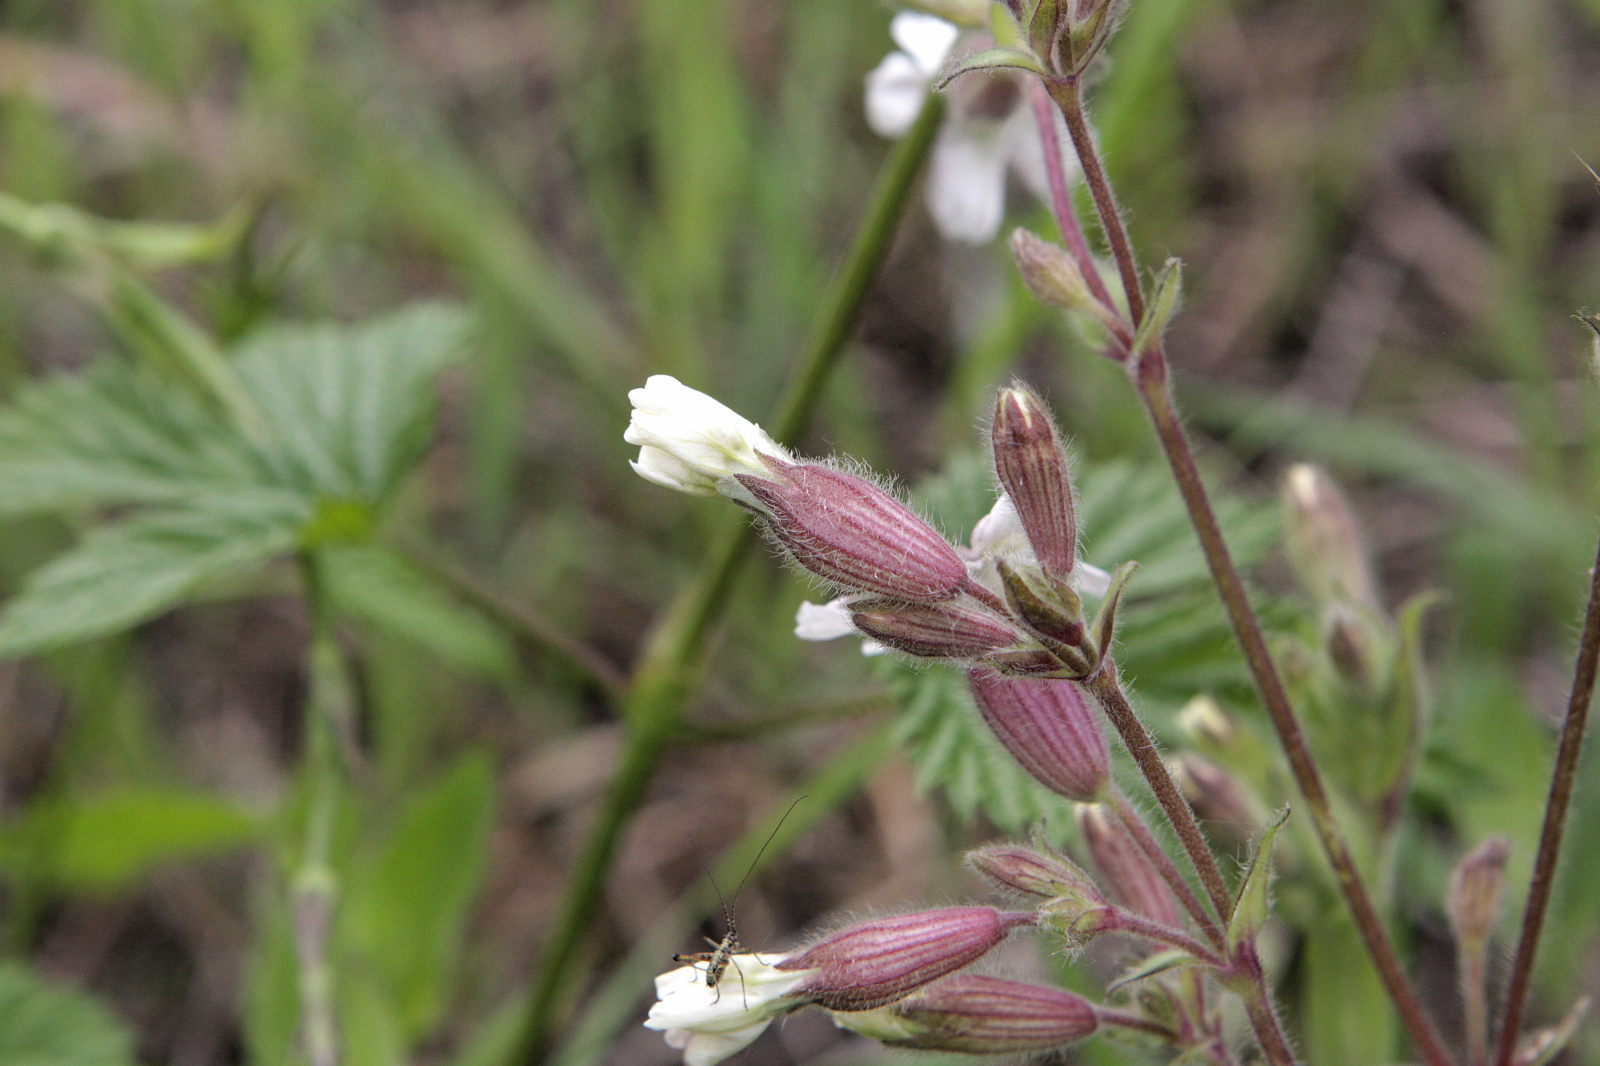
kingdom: Plantae
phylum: Tracheophyta
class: Magnoliopsida
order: Caryophyllales
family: Caryophyllaceae
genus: Silene
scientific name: Silene latifolia
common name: White campion
